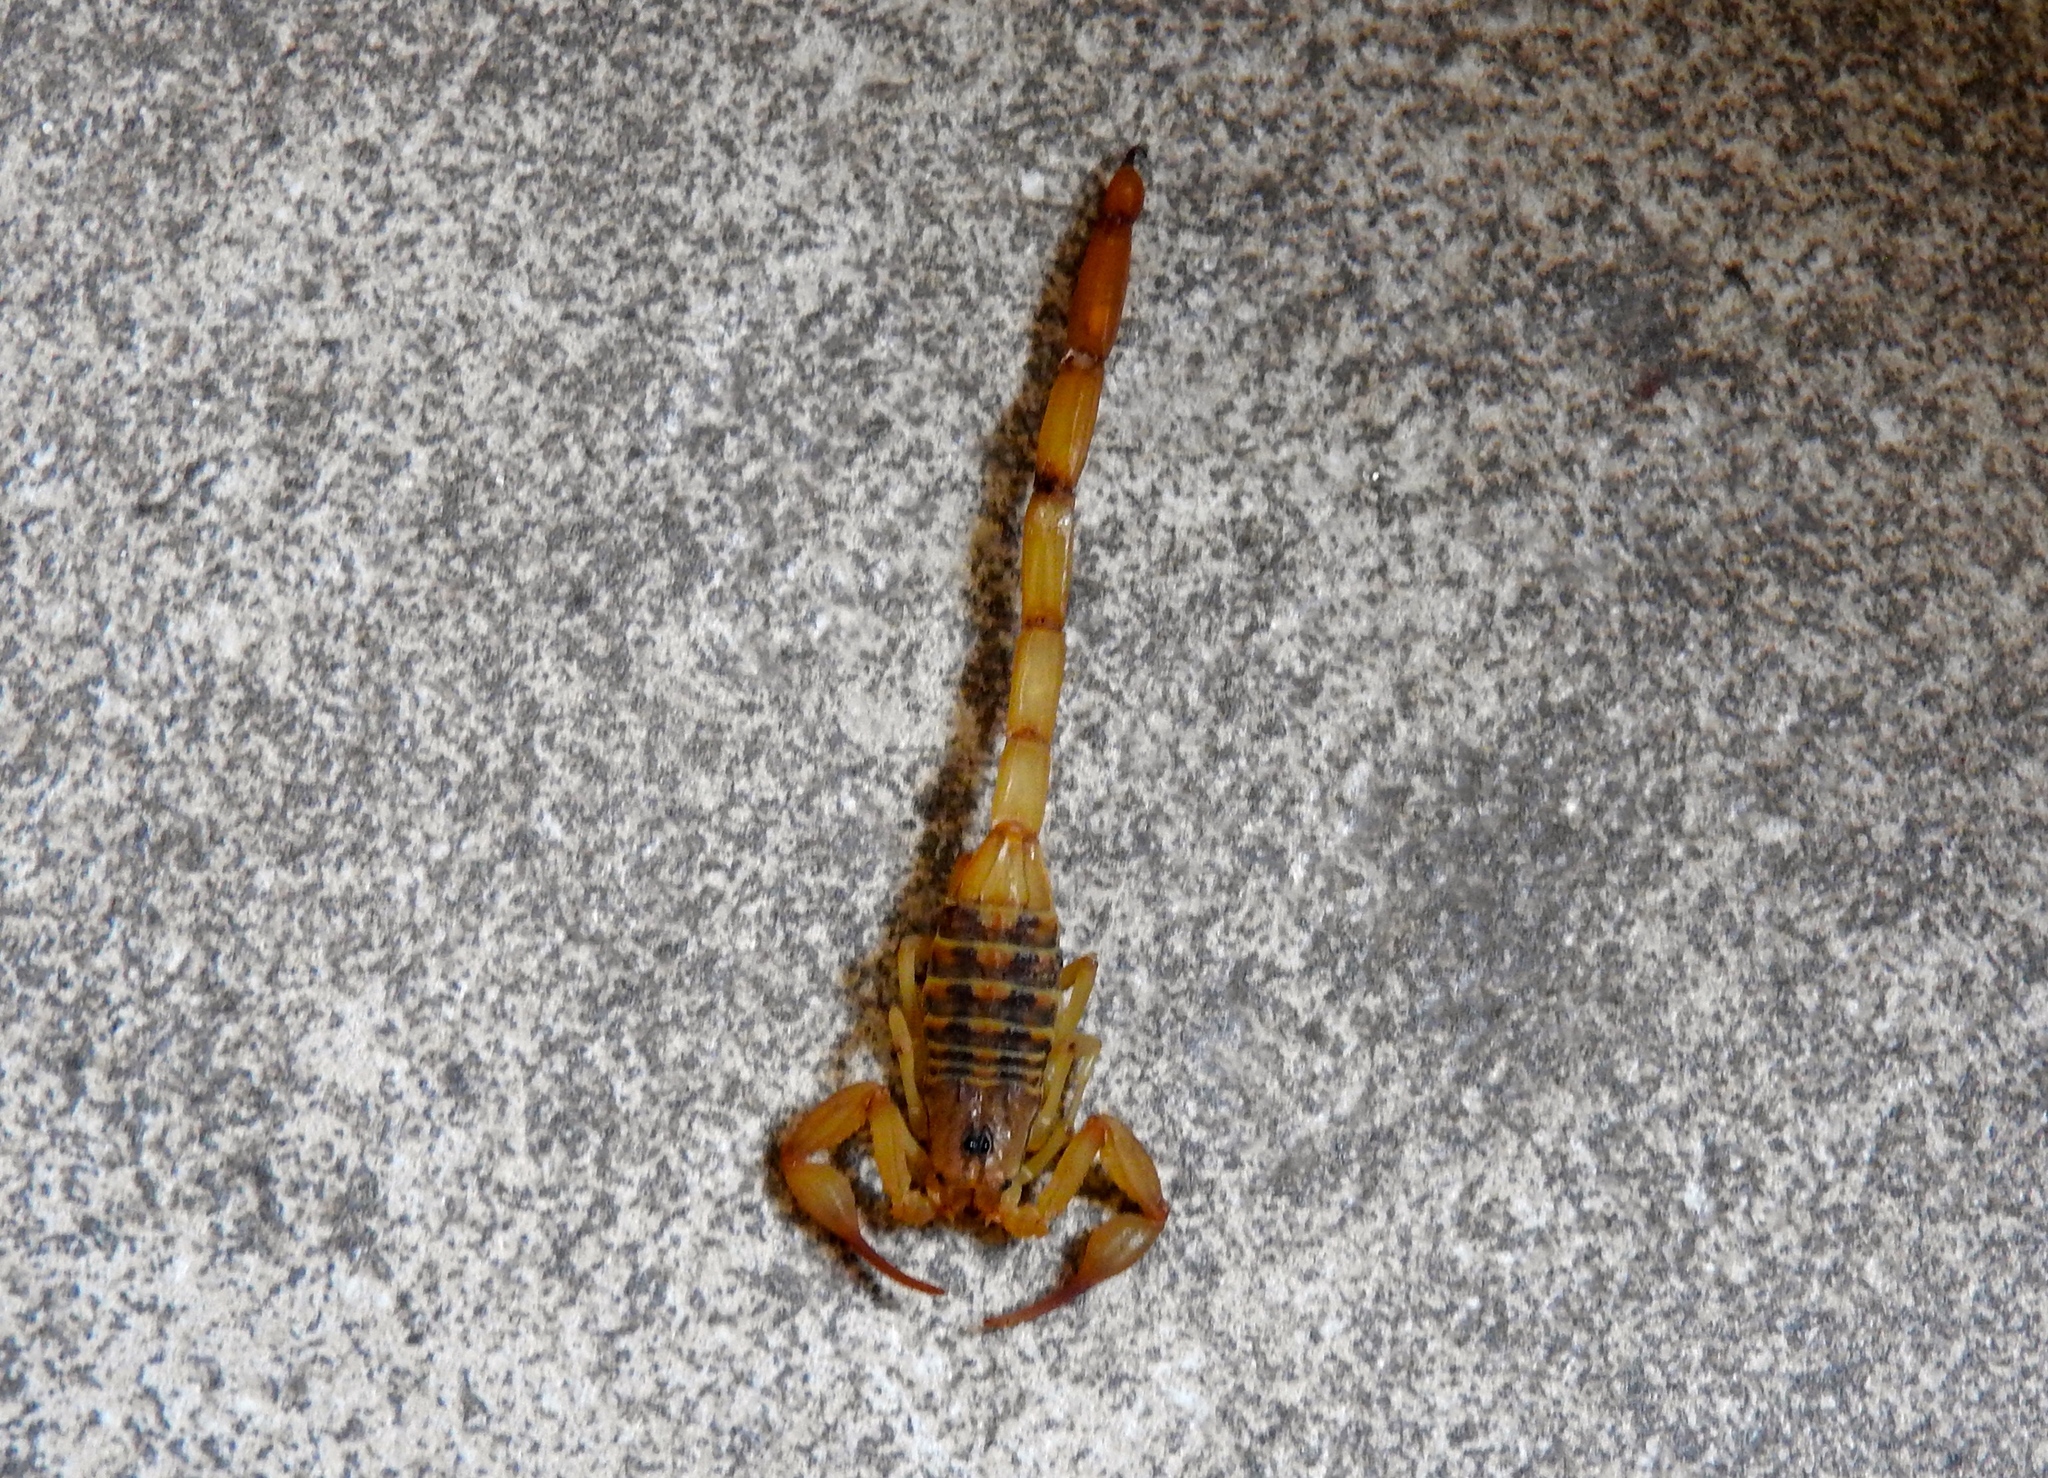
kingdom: Animalia
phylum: Arthropoda
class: Arachnida
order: Scorpiones
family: Buthidae
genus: Centruroides
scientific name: Centruroides
